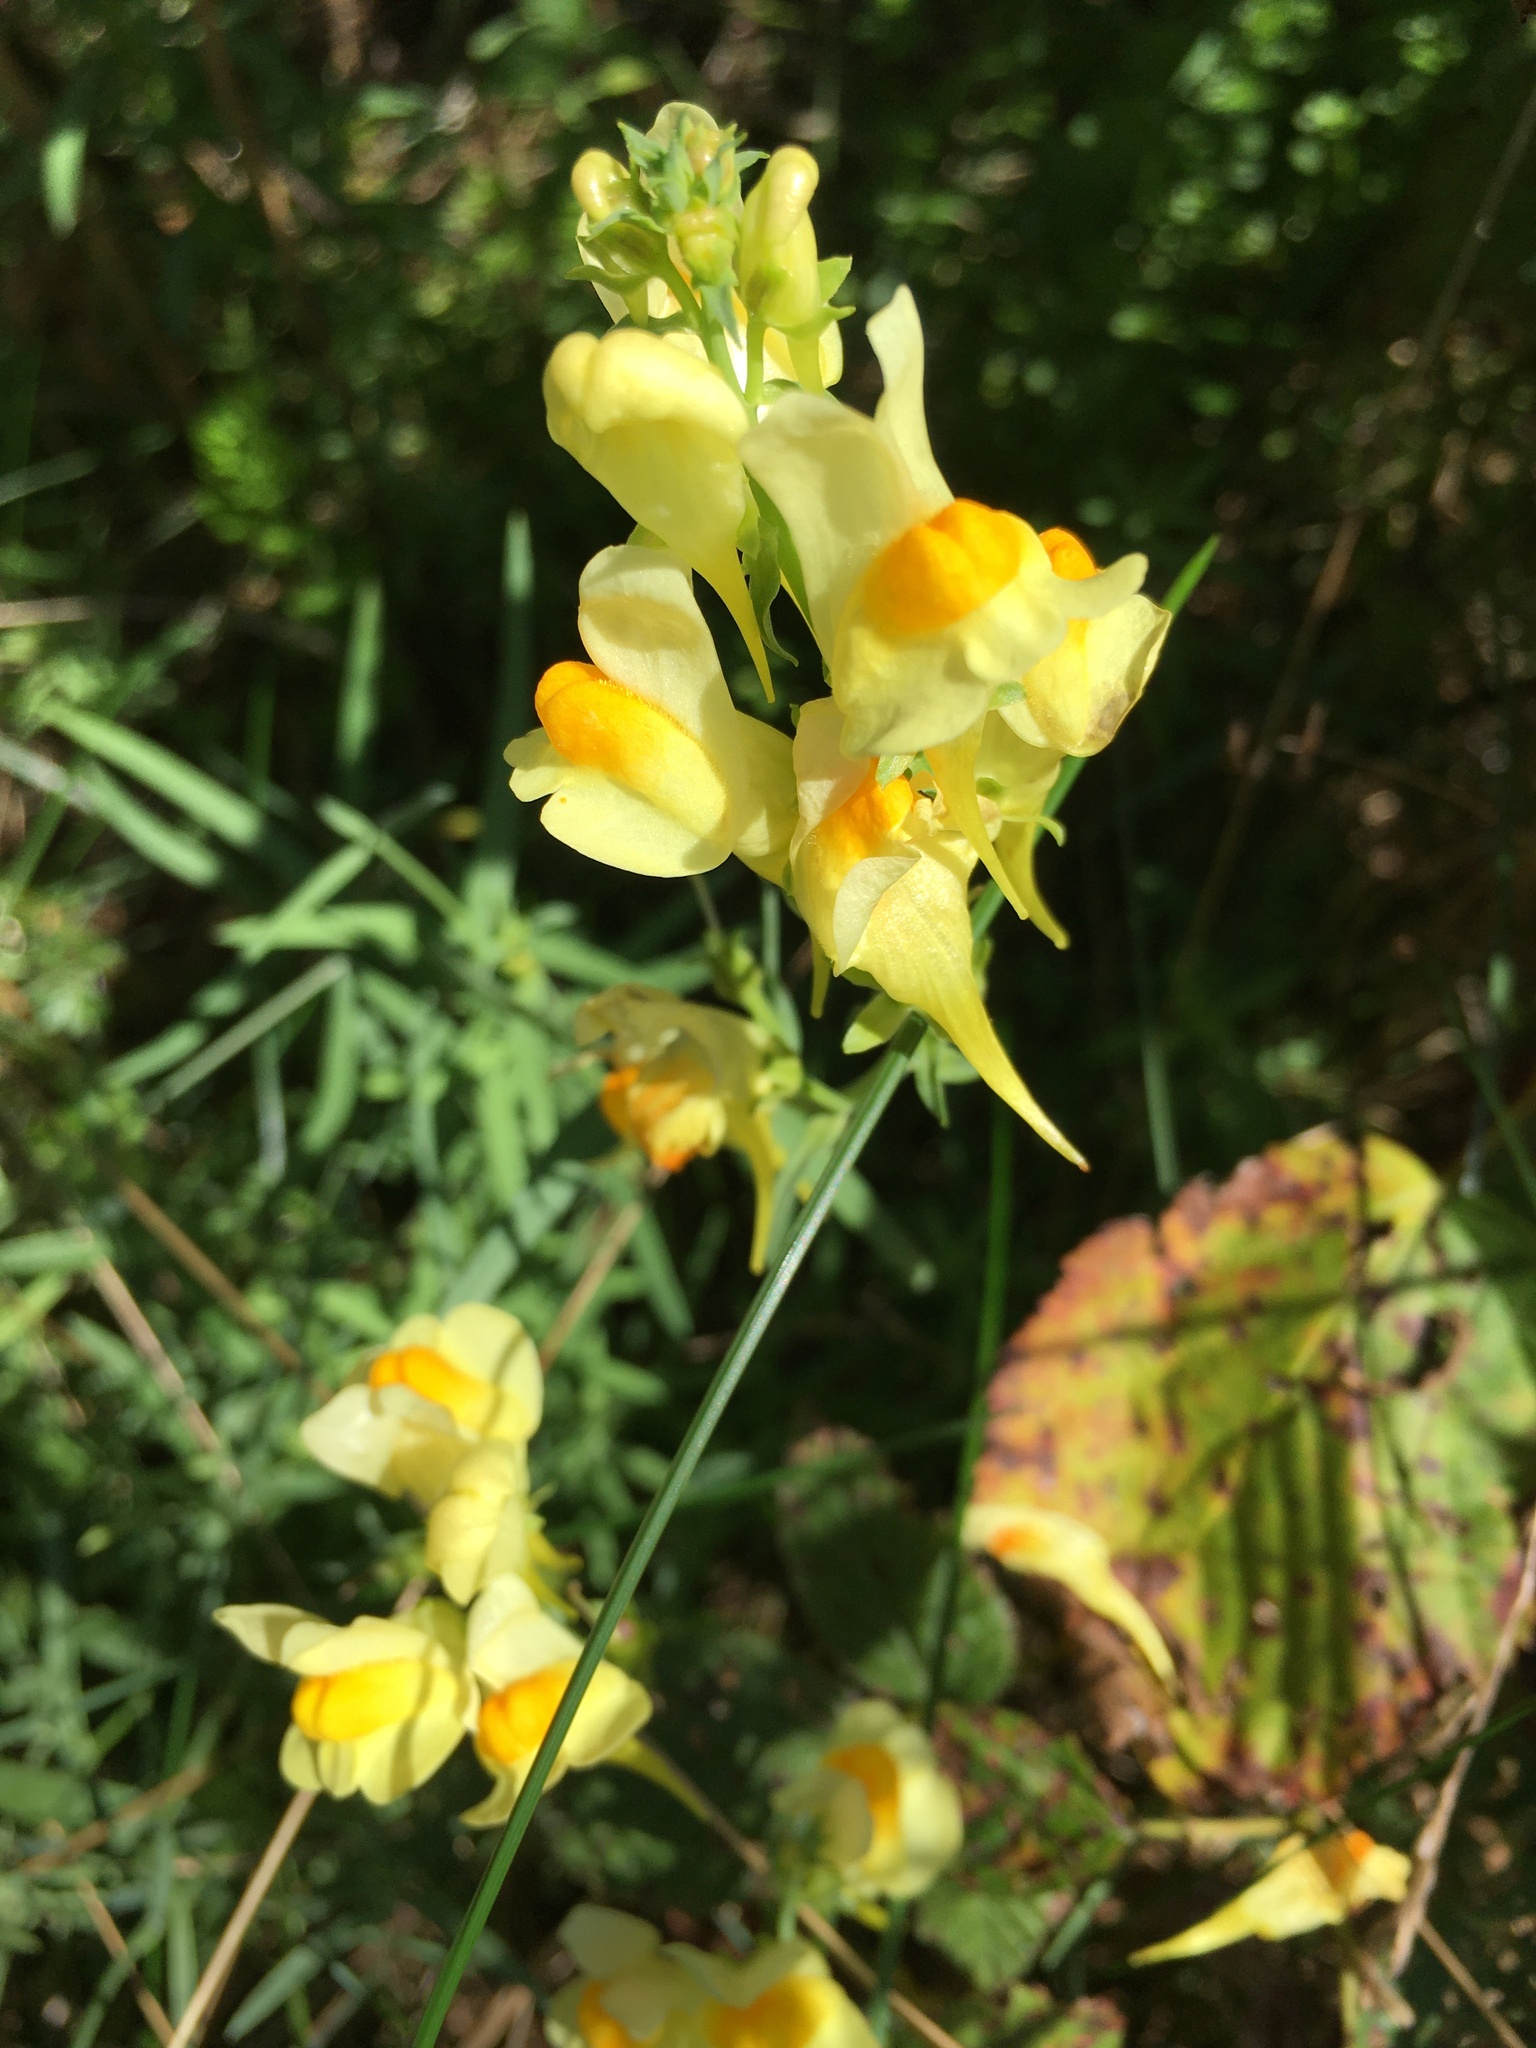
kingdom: Plantae
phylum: Tracheophyta
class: Magnoliopsida
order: Lamiales
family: Plantaginaceae
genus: Linaria
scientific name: Linaria vulgaris
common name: Butter and eggs
